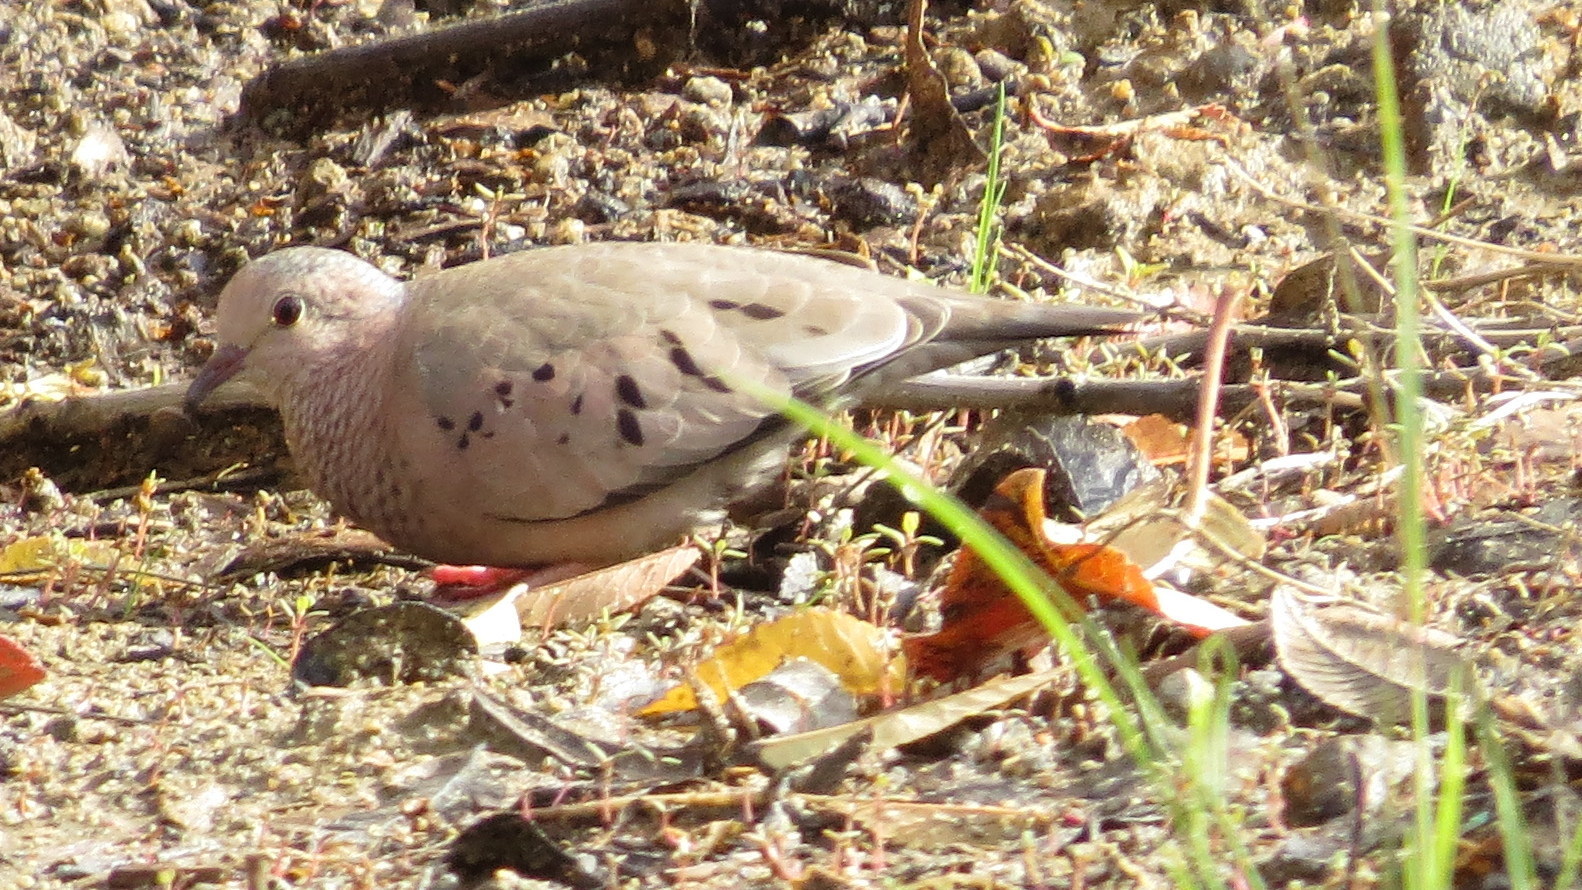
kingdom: Animalia
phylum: Chordata
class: Aves
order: Columbiformes
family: Columbidae
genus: Columbina
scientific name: Columbina passerina
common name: Common ground-dove
